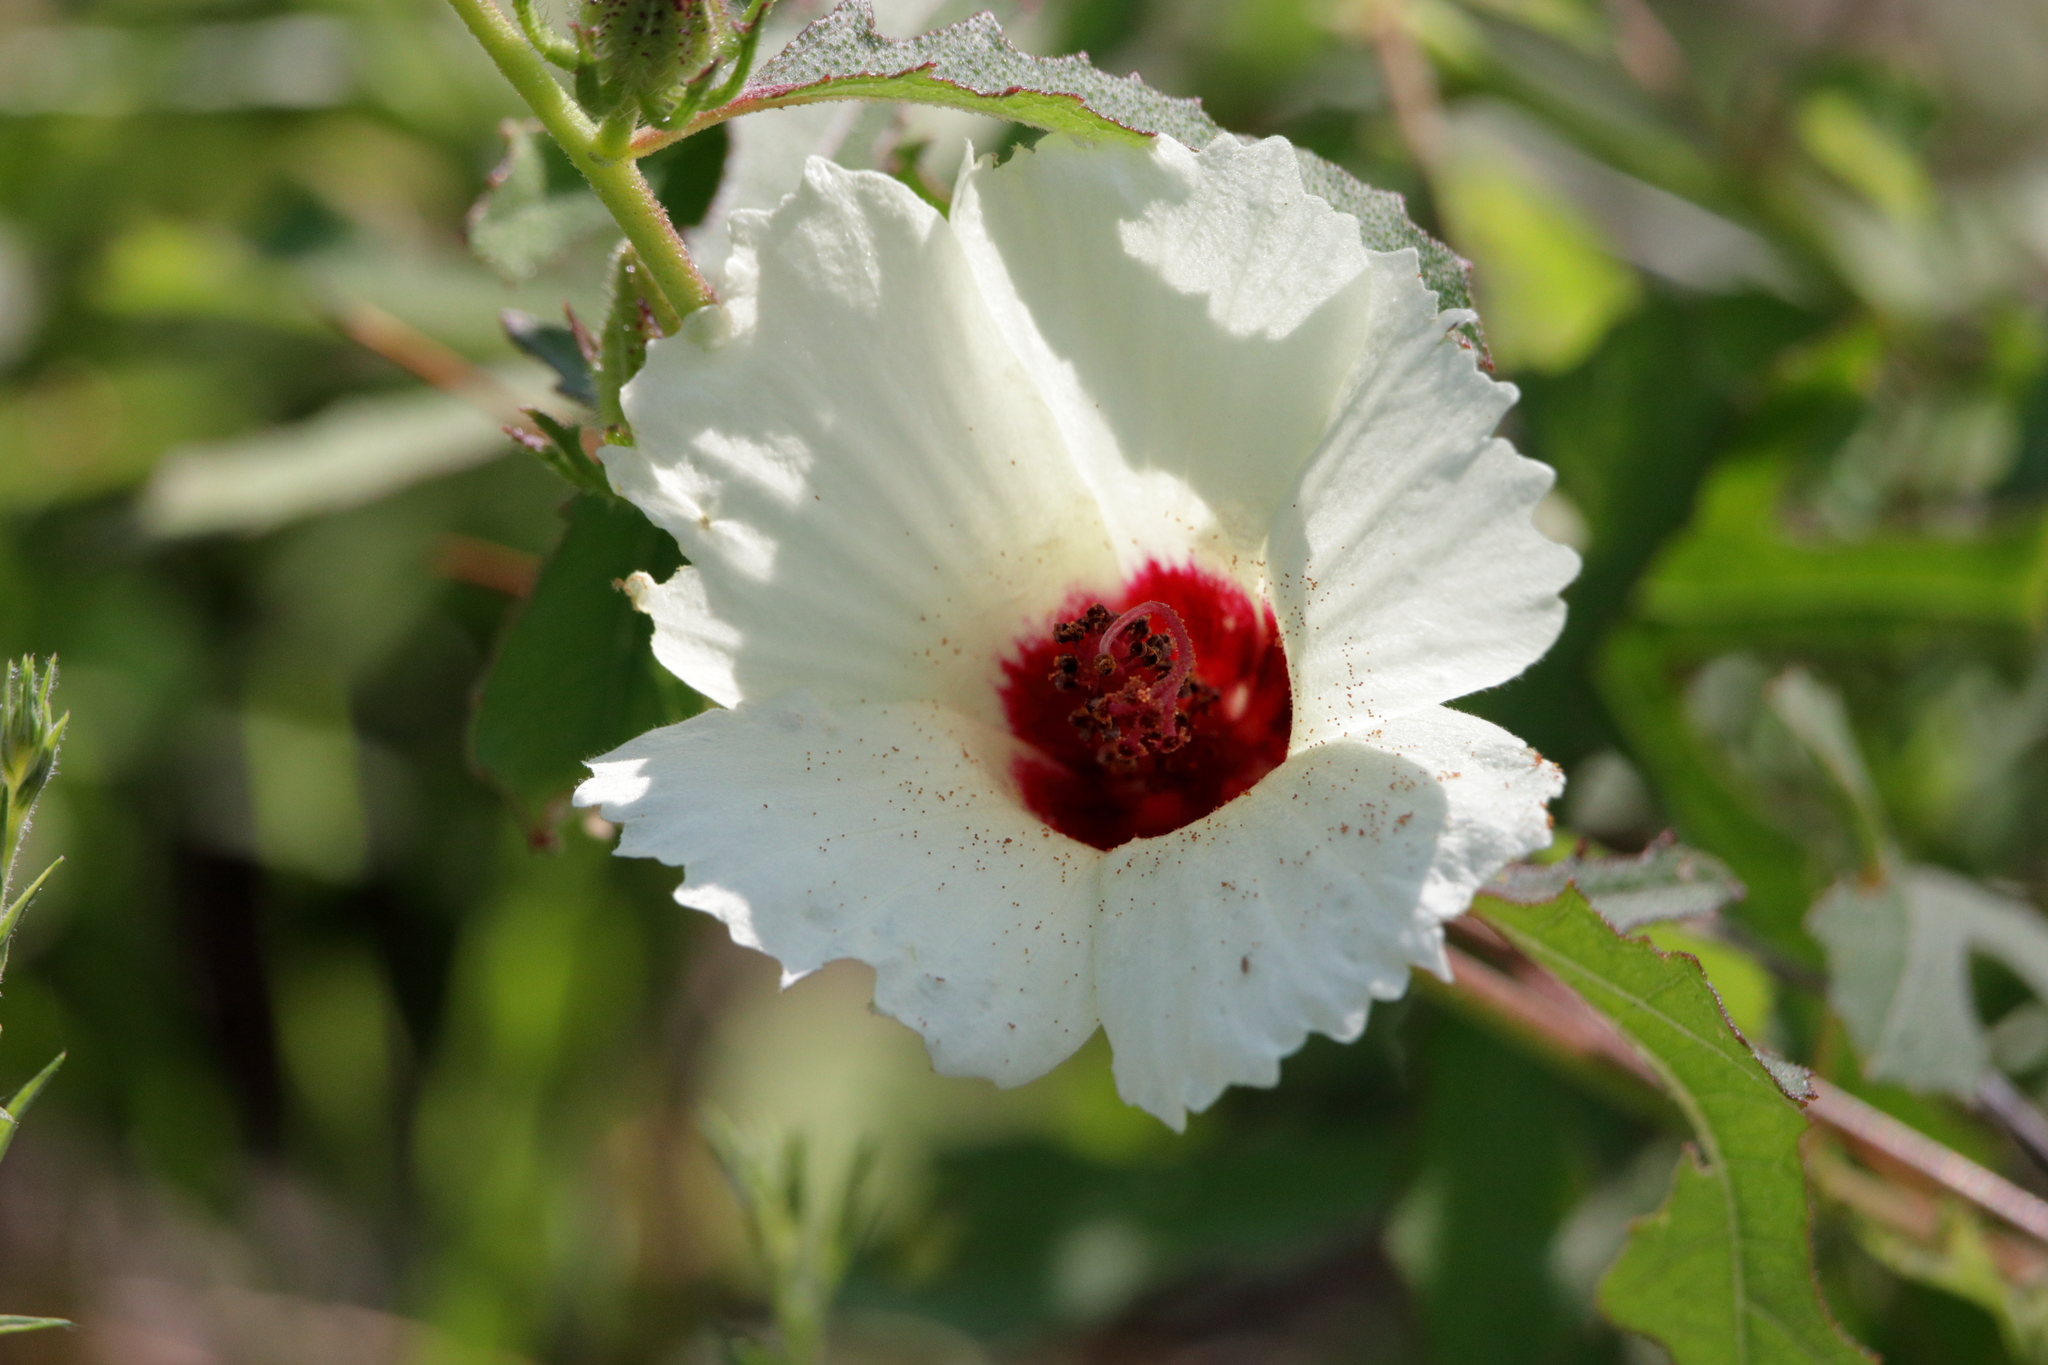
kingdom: Plantae
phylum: Tracheophyta
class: Magnoliopsida
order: Malvales
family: Malvaceae
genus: Hibiscus
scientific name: Hibiscus aculeatus
